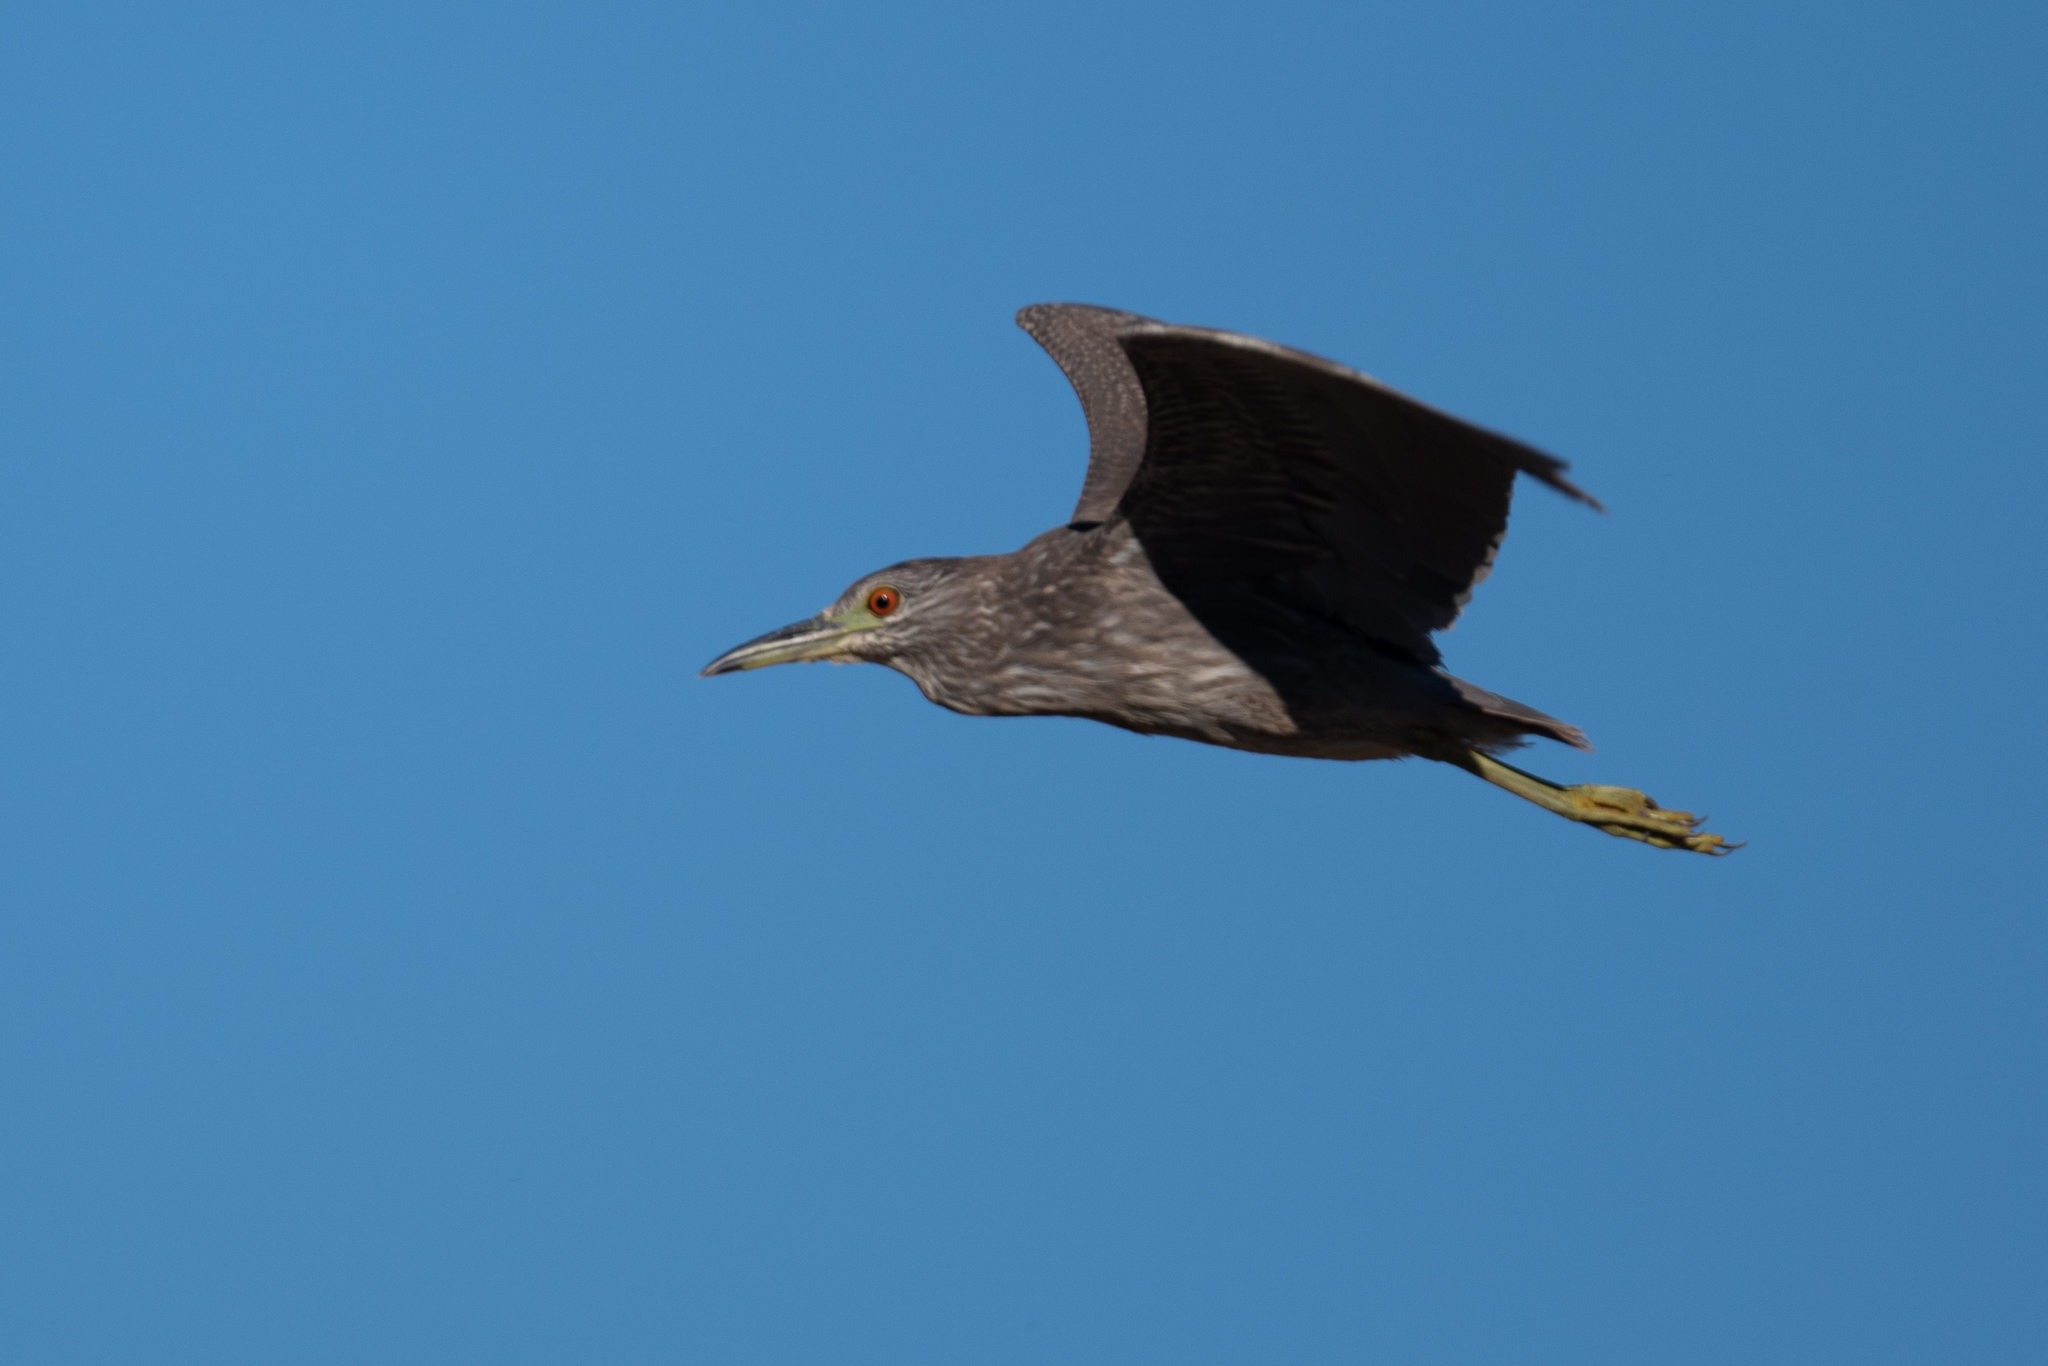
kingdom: Animalia
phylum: Chordata
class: Aves
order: Pelecaniformes
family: Ardeidae
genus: Nycticorax
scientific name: Nycticorax nycticorax
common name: Black-crowned night heron
